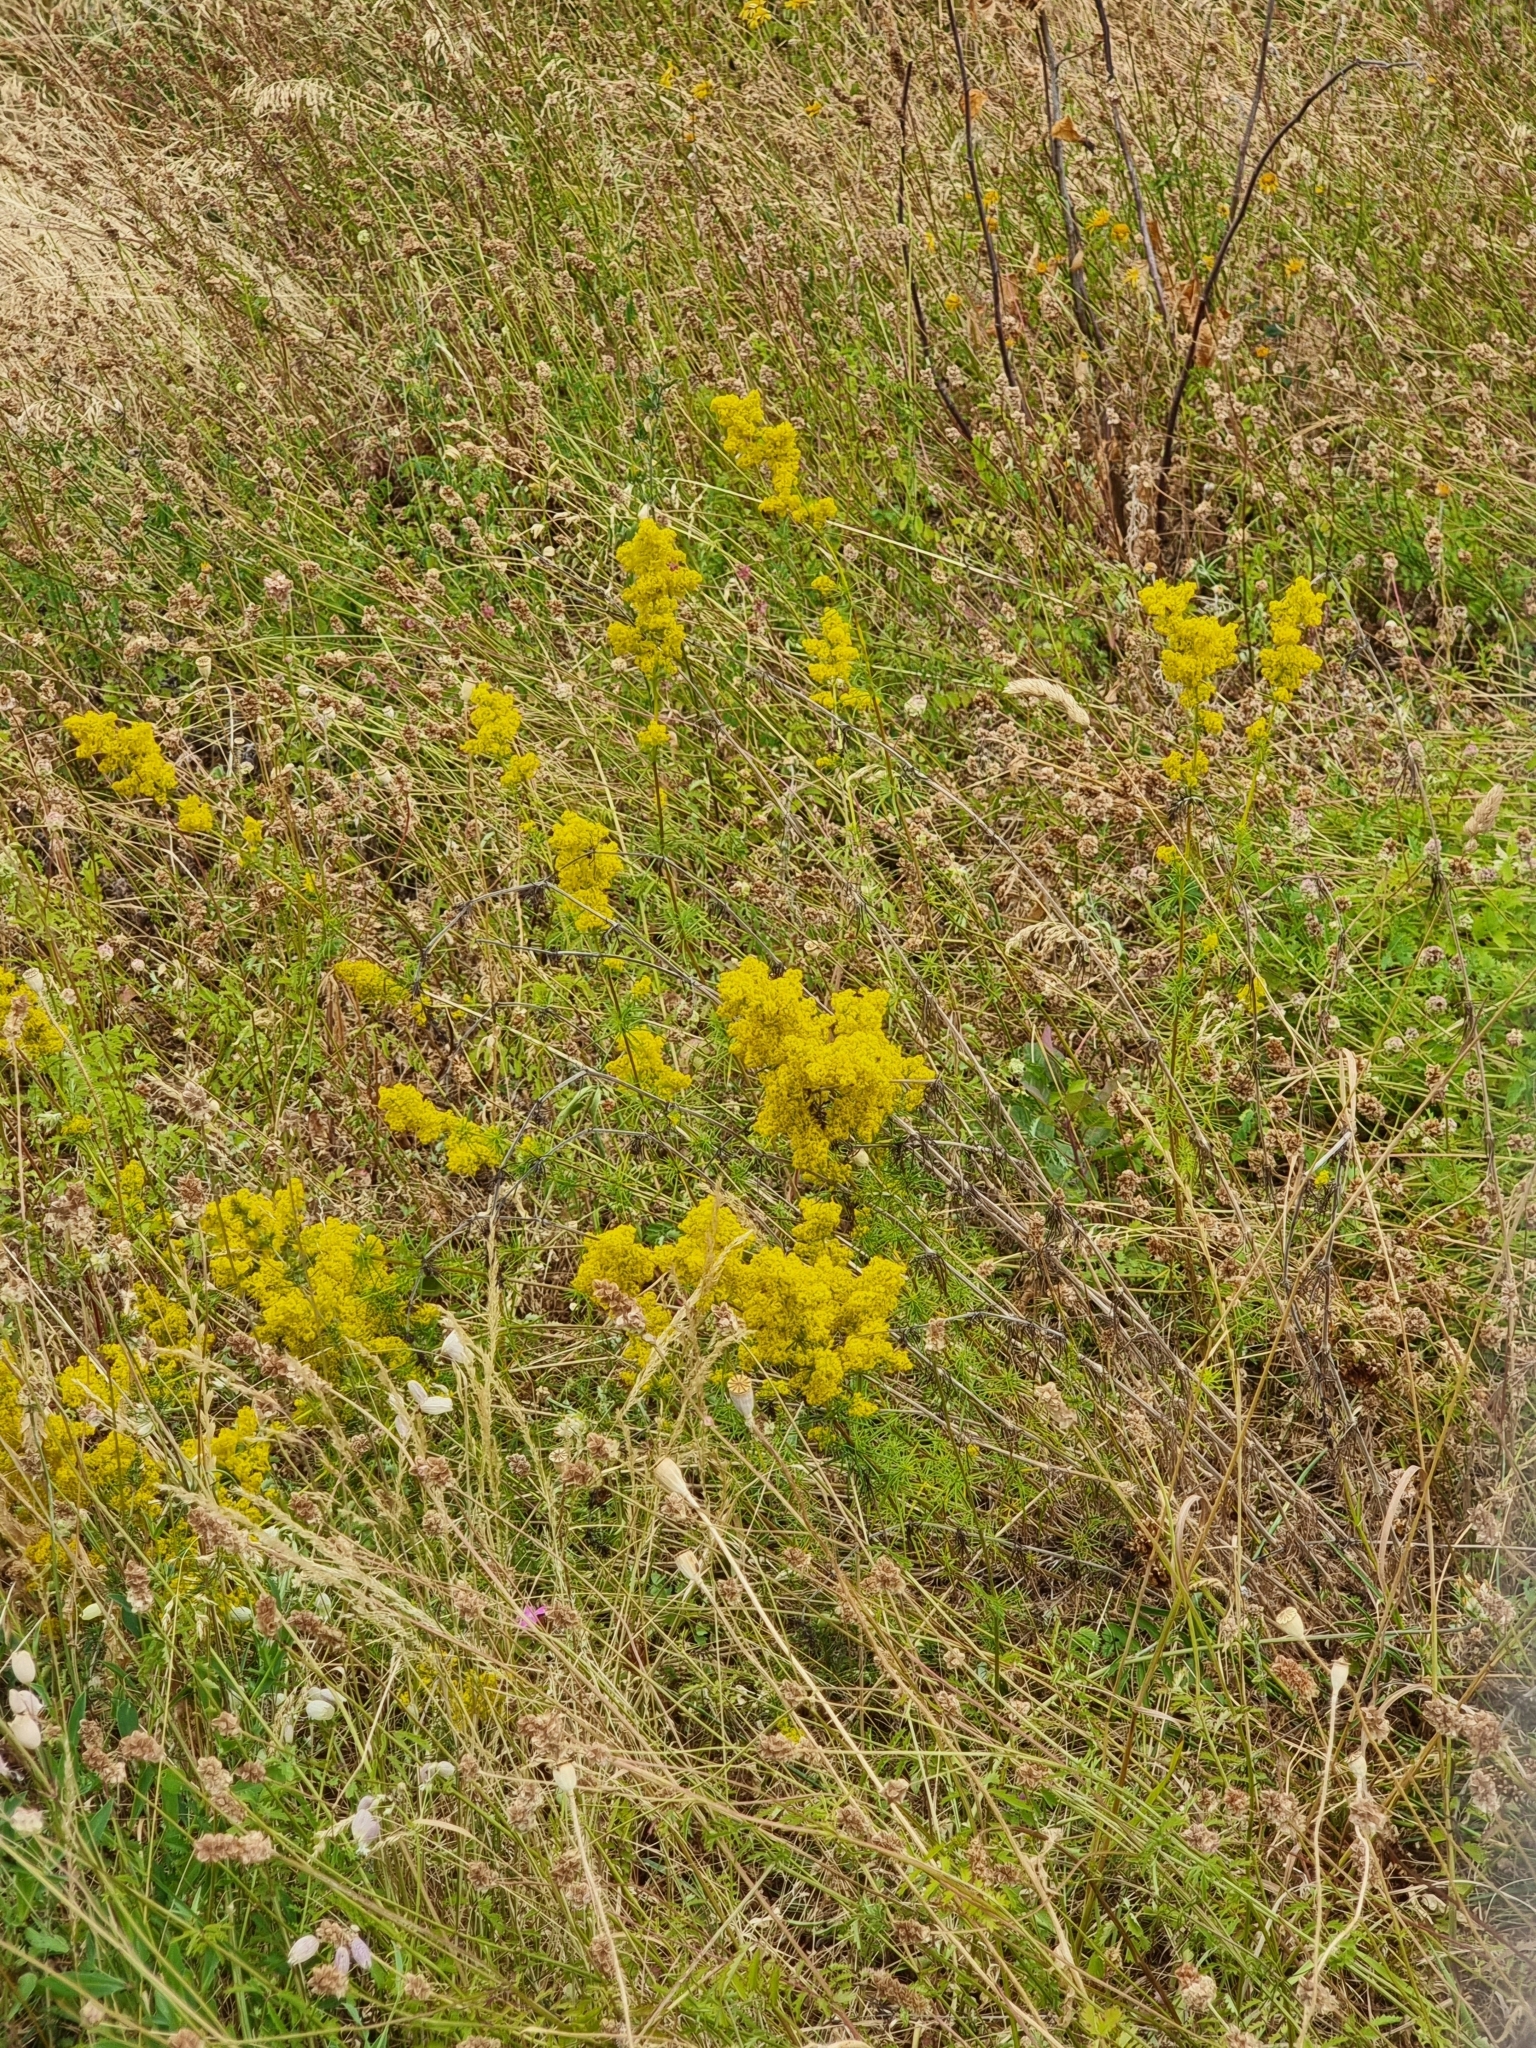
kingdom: Plantae
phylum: Tracheophyta
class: Magnoliopsida
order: Gentianales
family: Rubiaceae
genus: Galium
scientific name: Galium verum
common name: Lady's bedstraw
